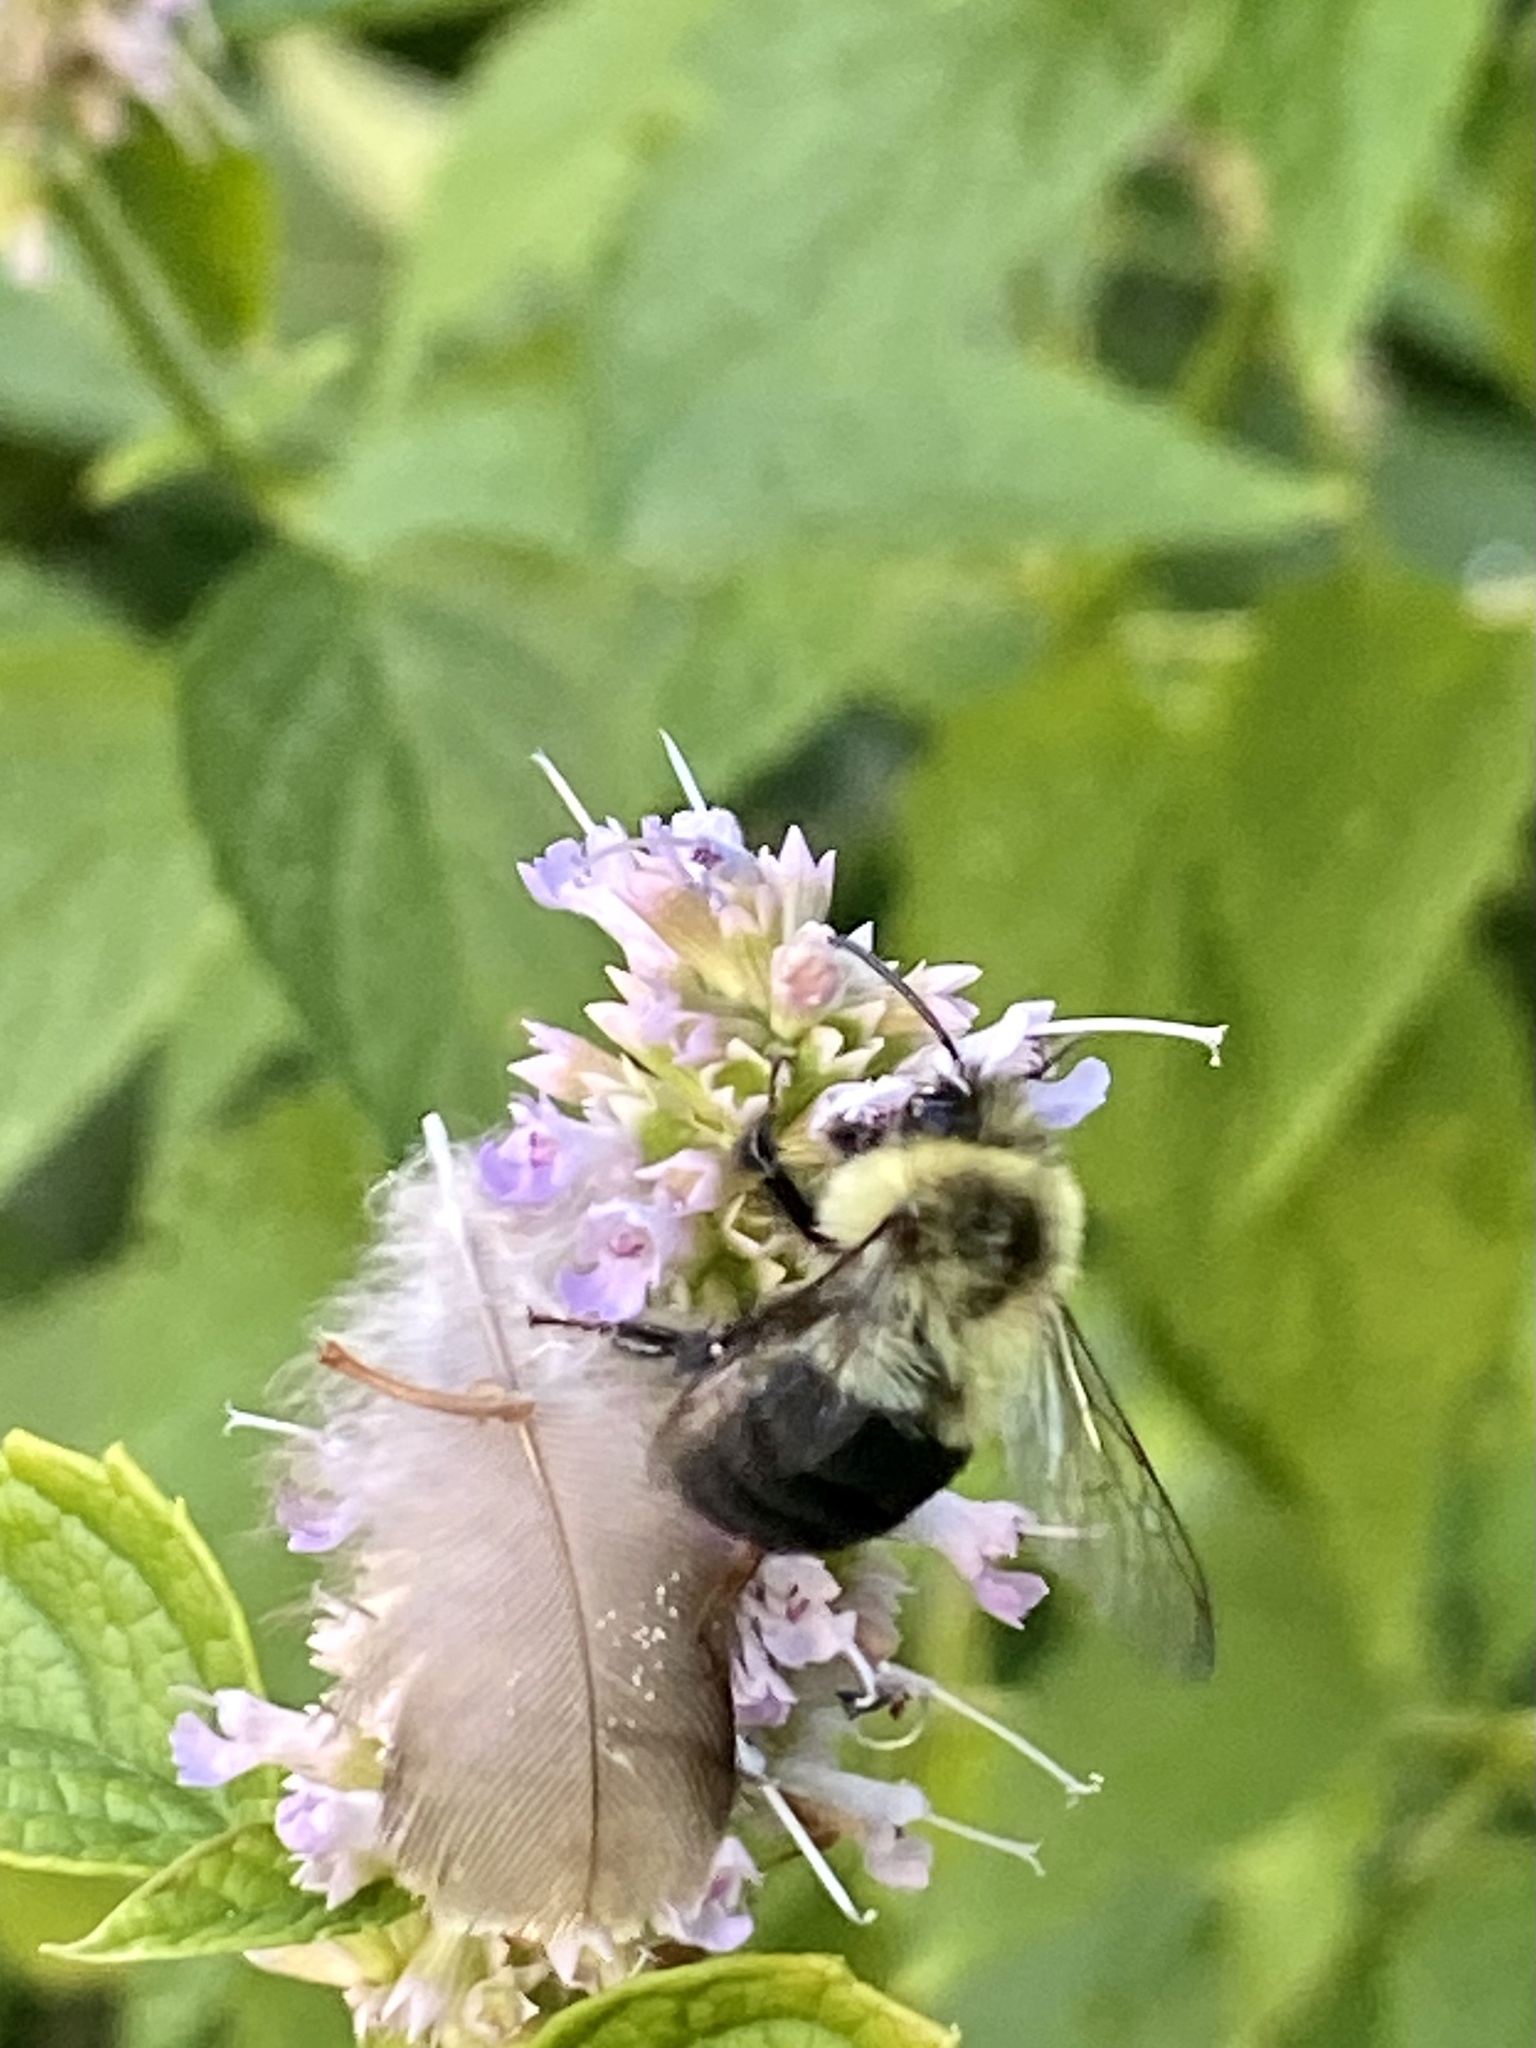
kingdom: Animalia
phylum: Arthropoda
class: Insecta
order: Hymenoptera
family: Apidae
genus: Bombus
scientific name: Bombus impatiens
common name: Common eastern bumble bee
